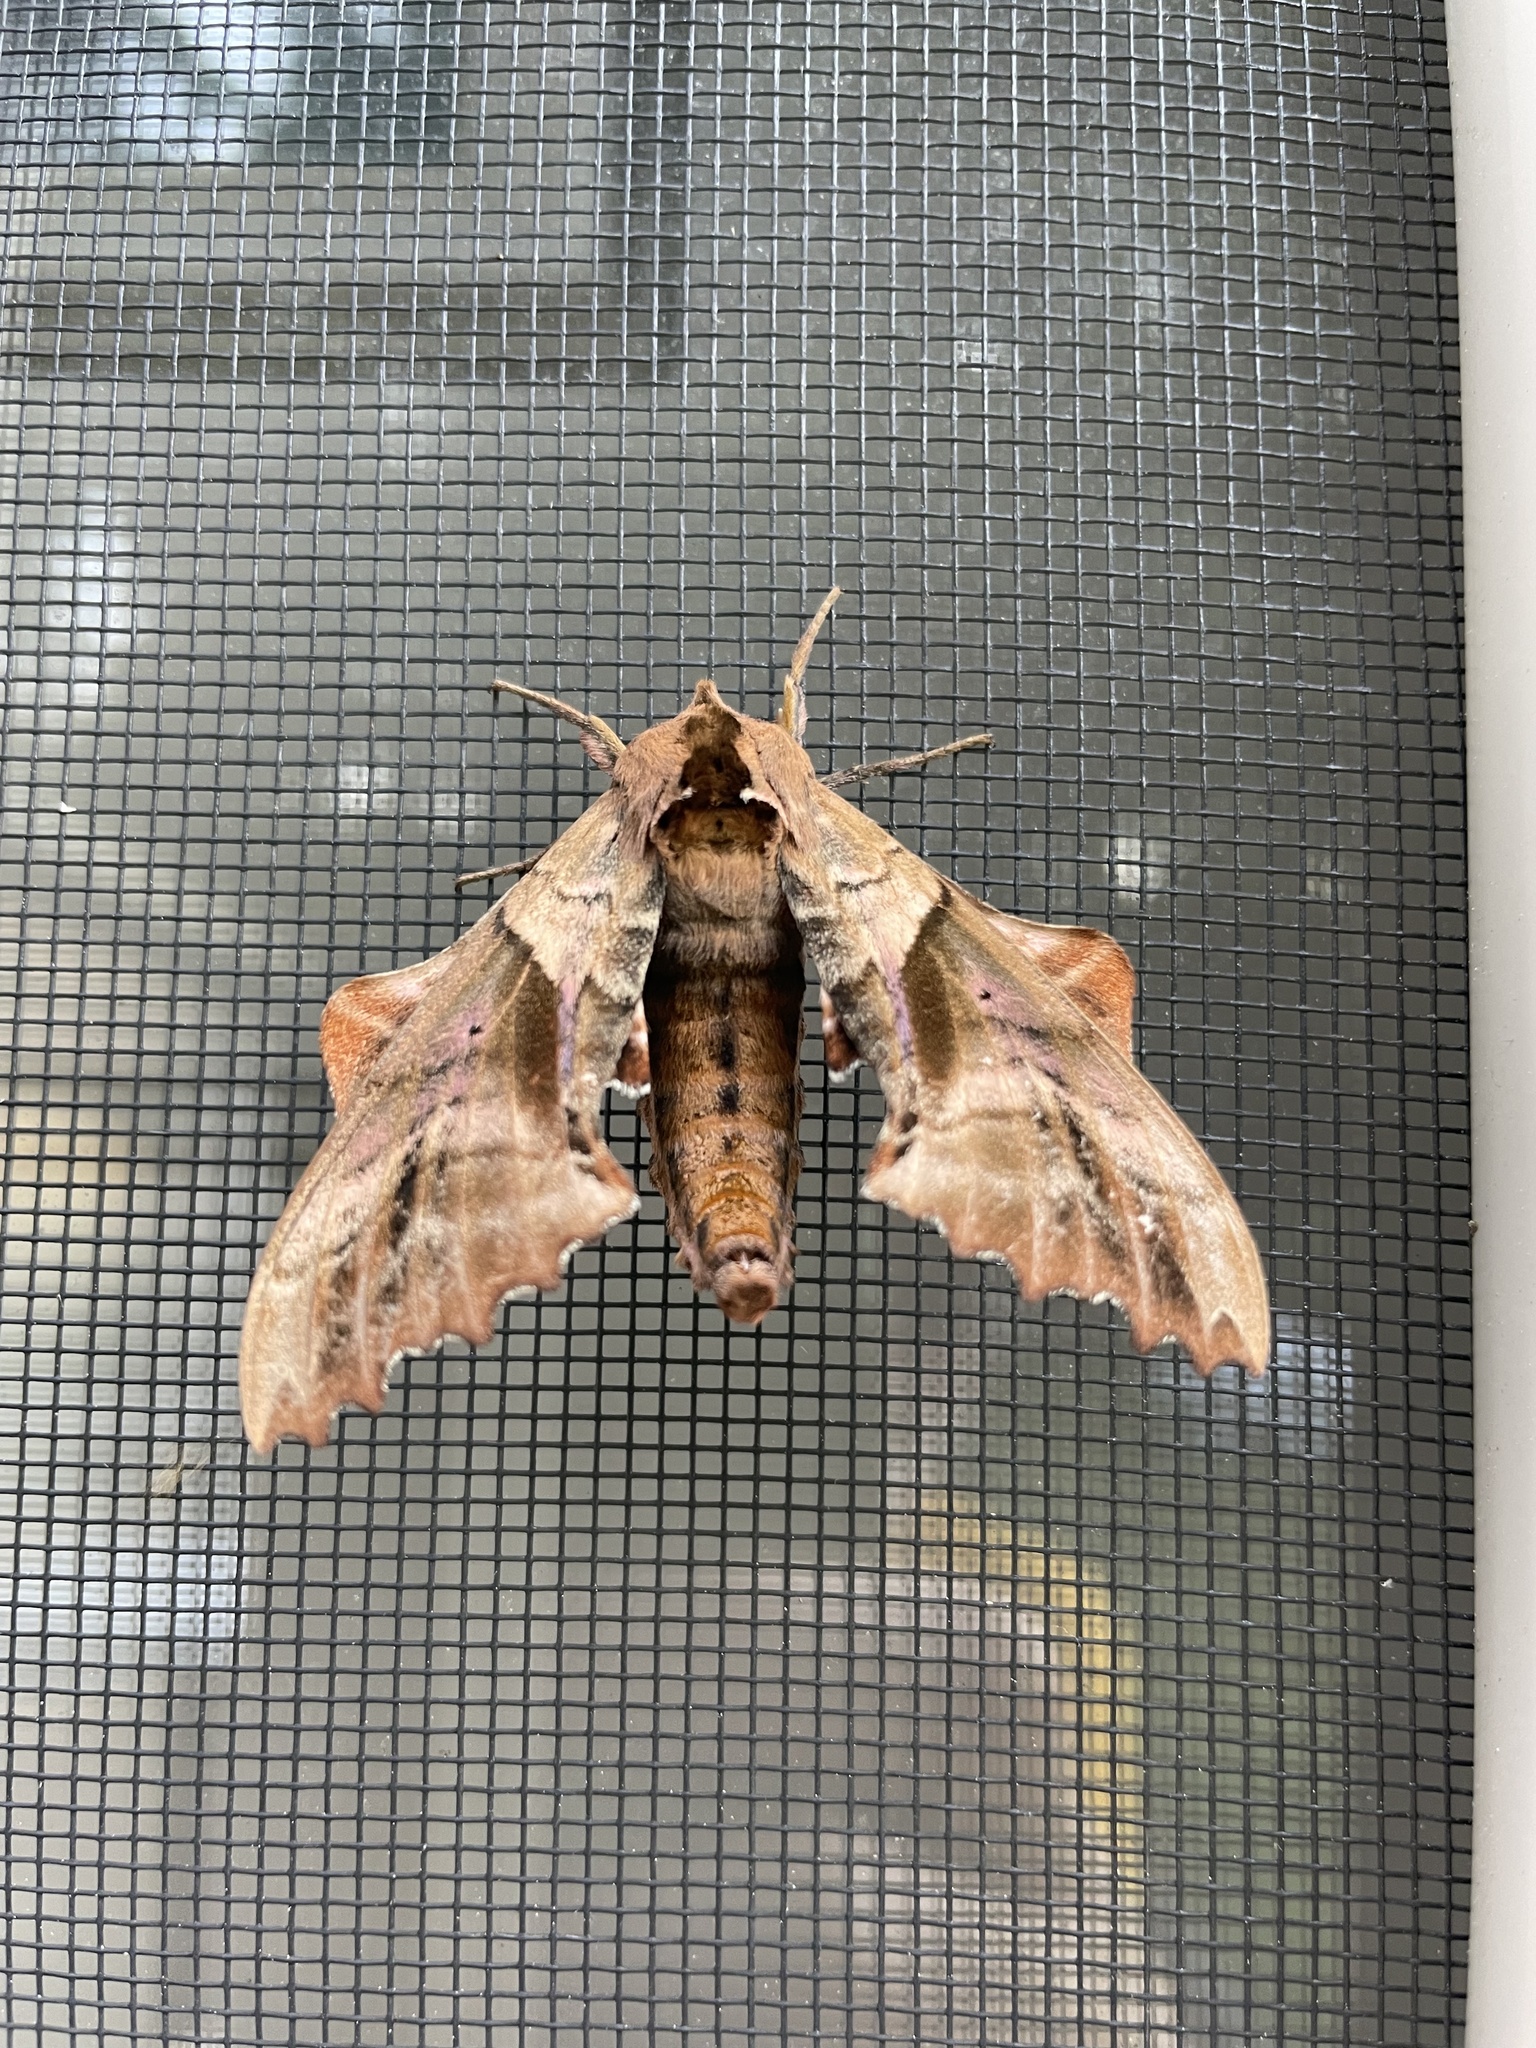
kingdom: Animalia
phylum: Arthropoda
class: Insecta
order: Lepidoptera
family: Sphingidae
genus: Paonias
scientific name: Paonias excaecata
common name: Blind-eyed sphinx
